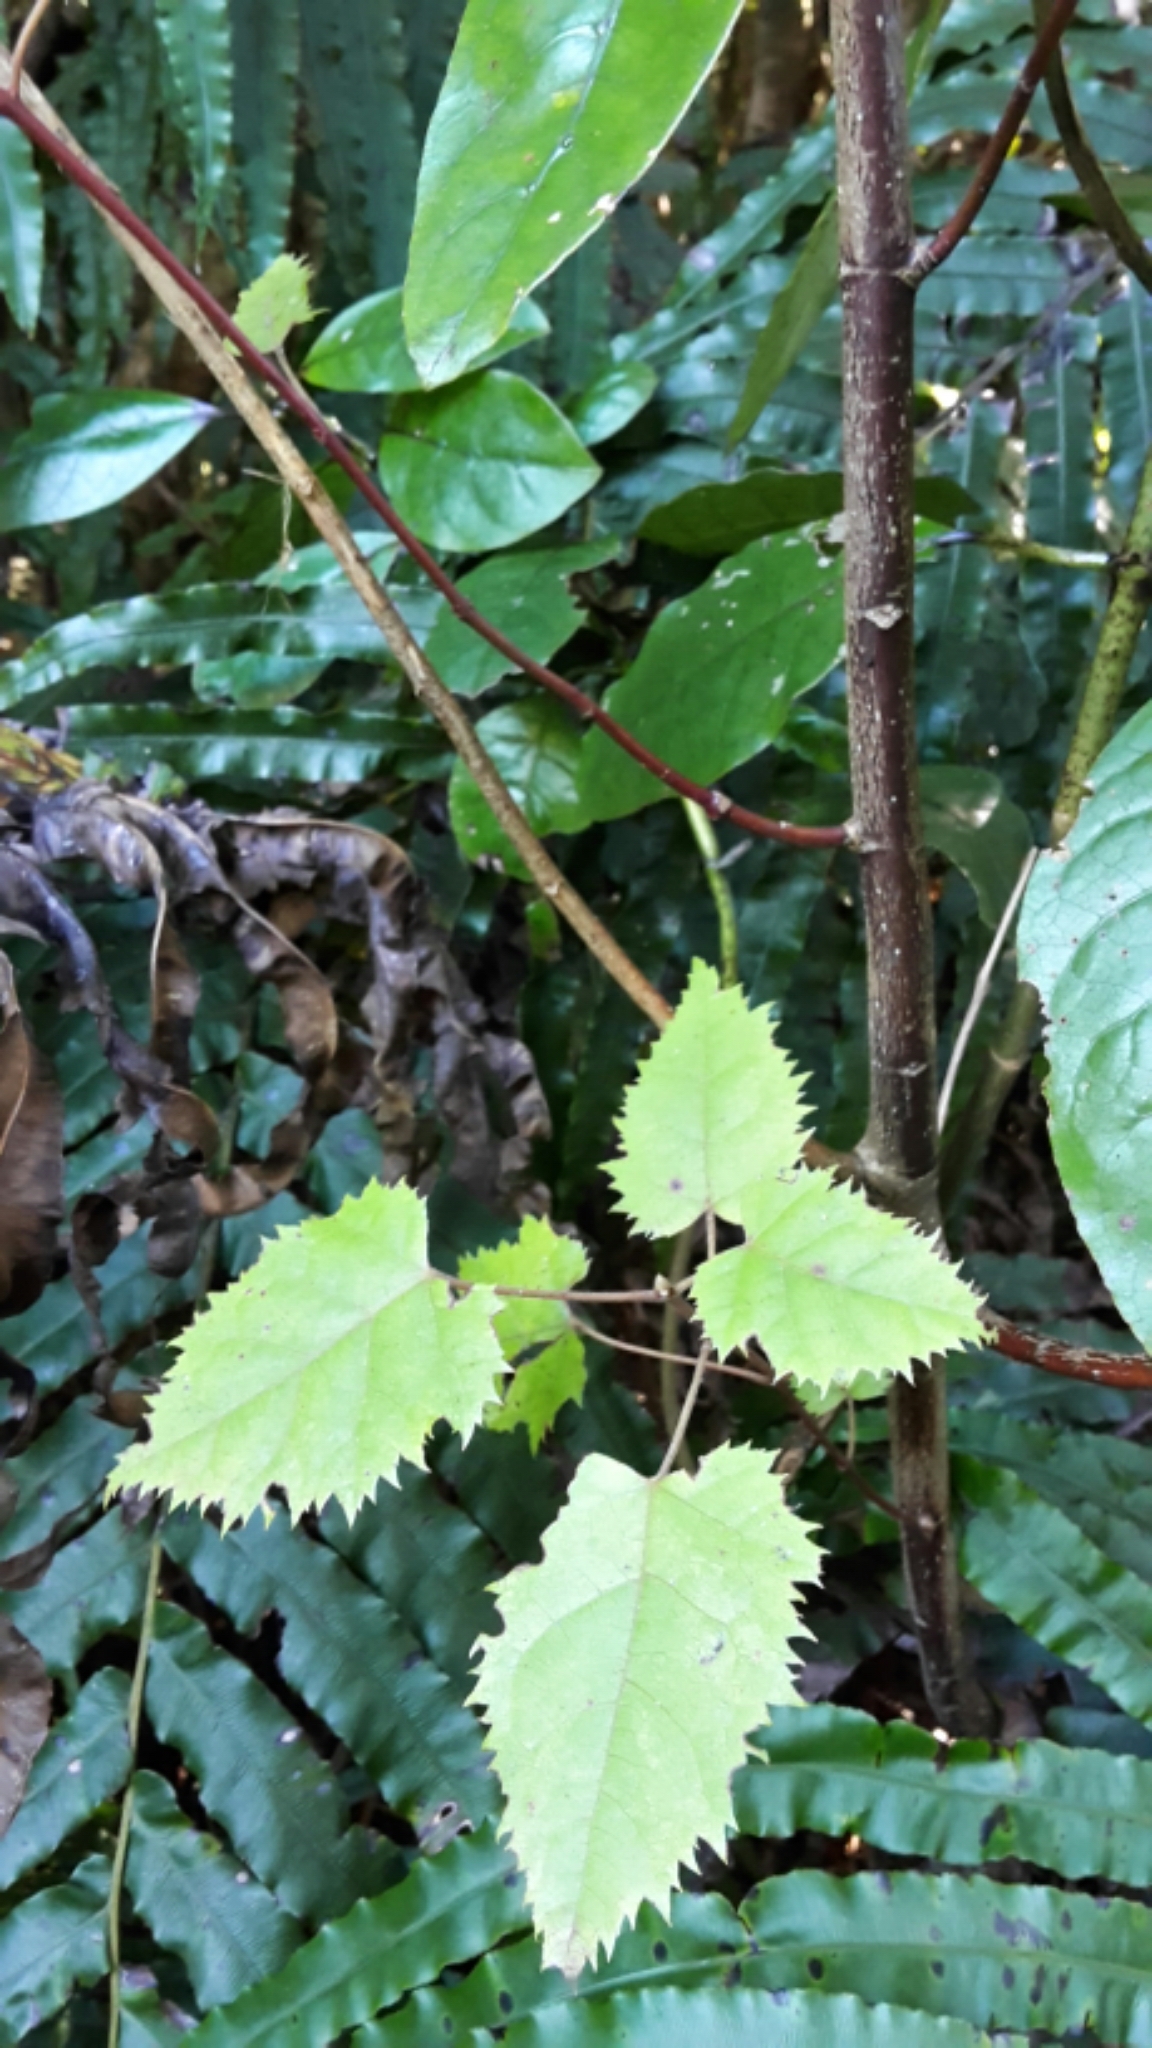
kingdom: Plantae
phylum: Tracheophyta
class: Magnoliopsida
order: Oxalidales
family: Elaeocarpaceae
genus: Aristotelia
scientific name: Aristotelia serrata
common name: New zealand wineberry
